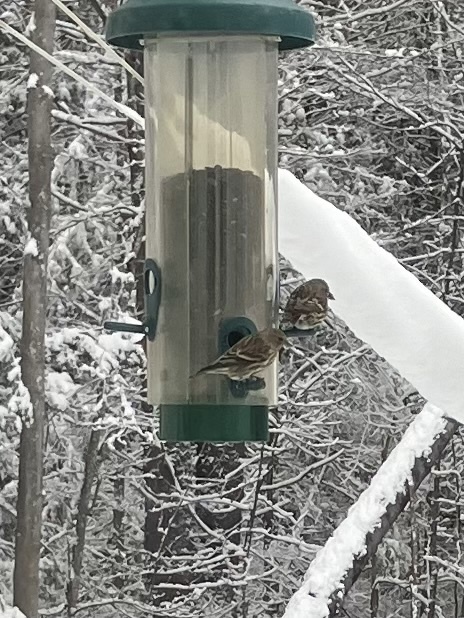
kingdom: Animalia
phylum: Chordata
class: Aves
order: Passeriformes
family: Fringillidae
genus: Spinus
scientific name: Spinus pinus
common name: Pine siskin
